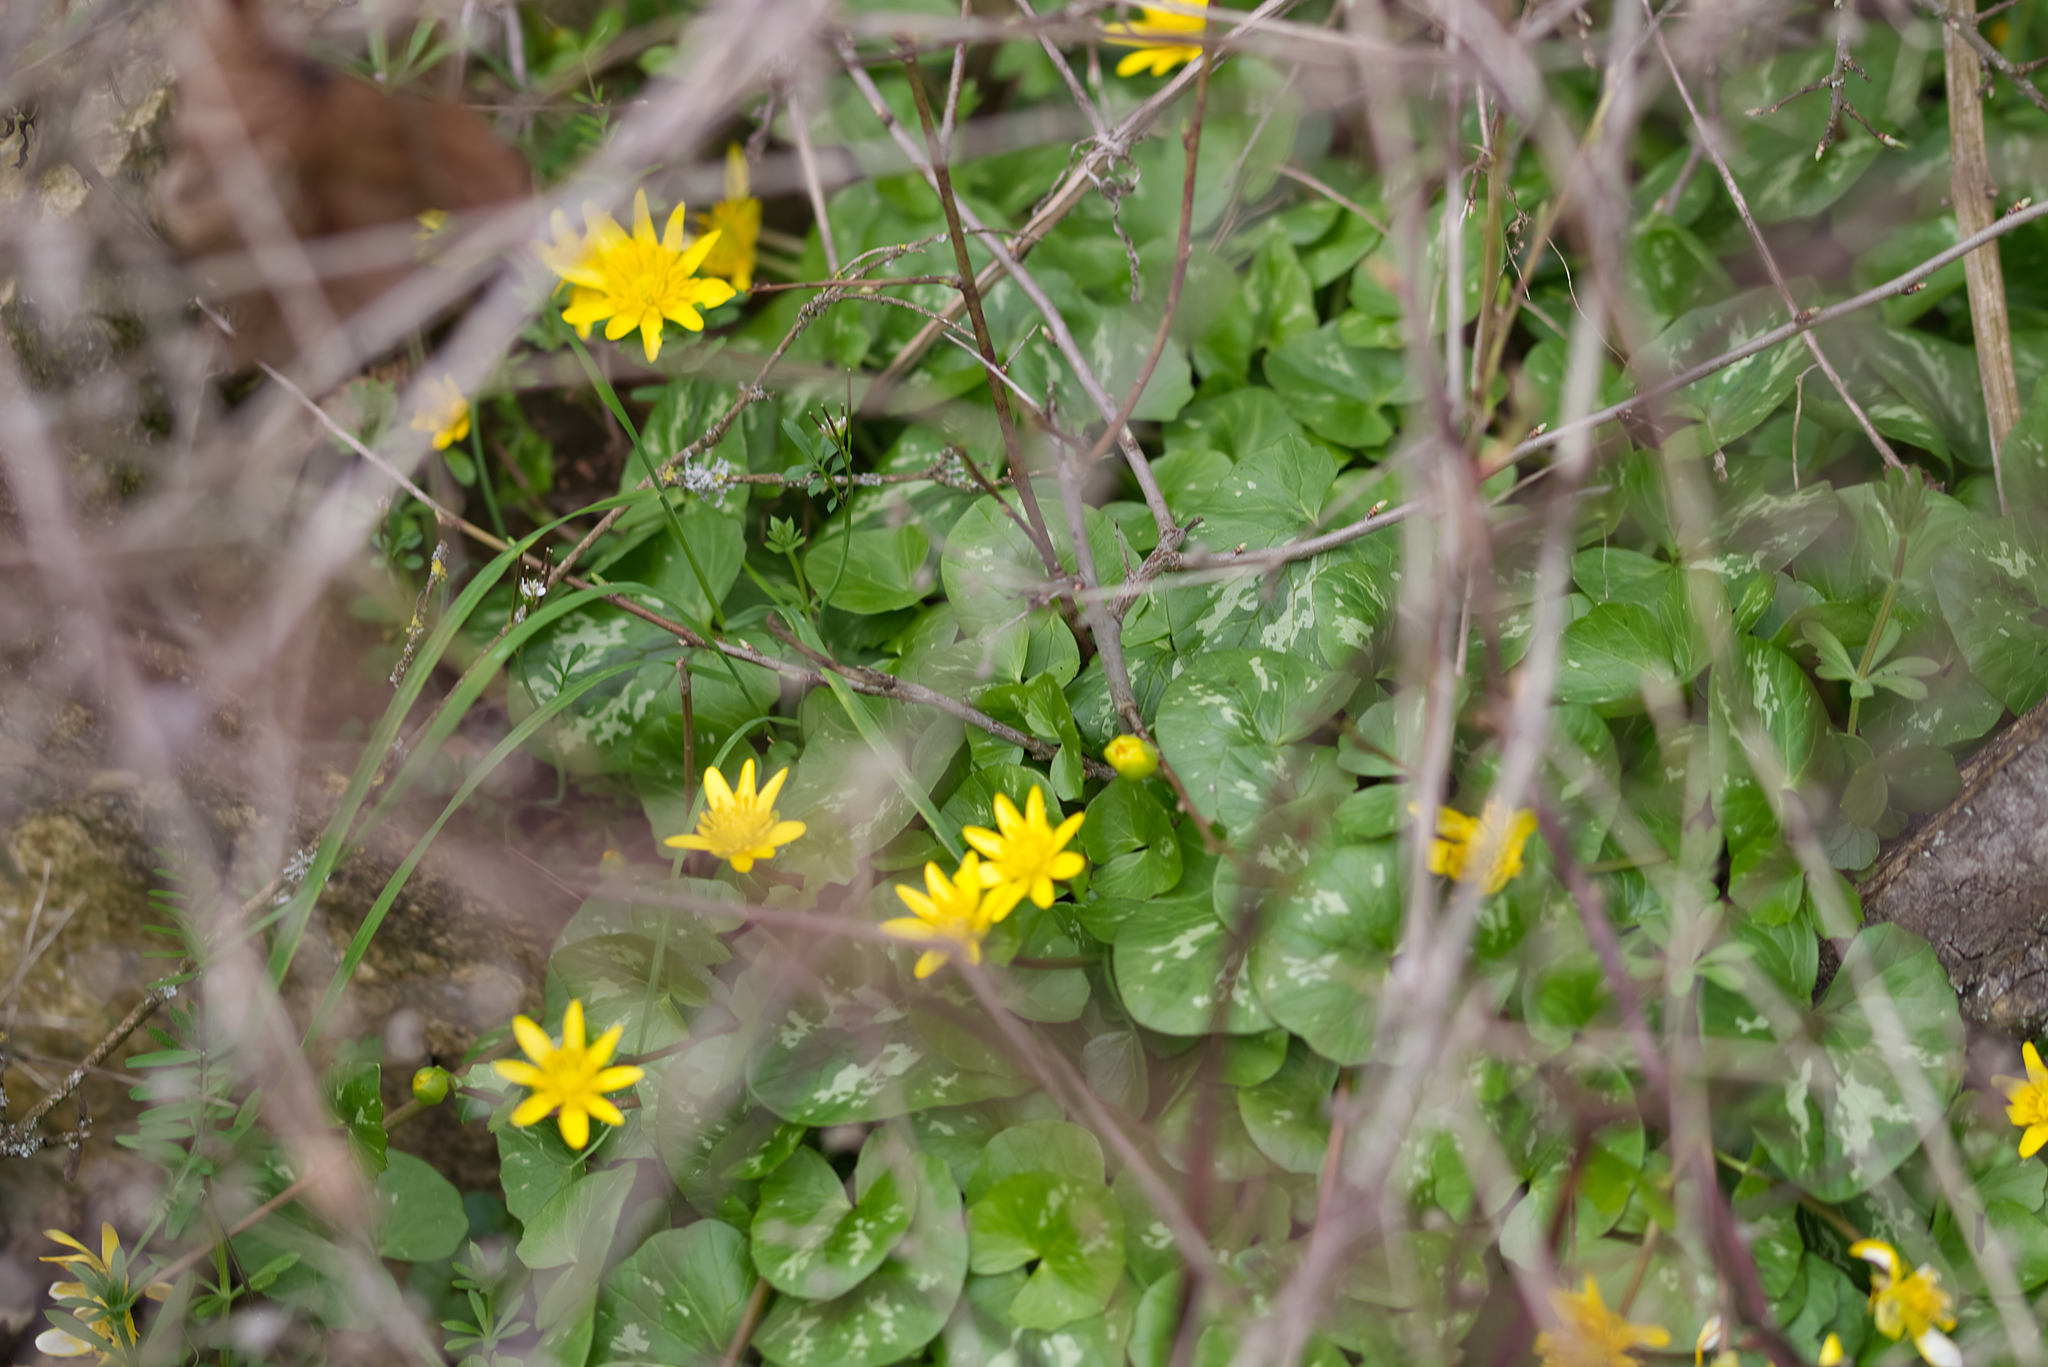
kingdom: Plantae
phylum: Tracheophyta
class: Magnoliopsida
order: Ranunculales
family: Ranunculaceae
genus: Ficaria
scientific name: Ficaria verna
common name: Lesser celandine
